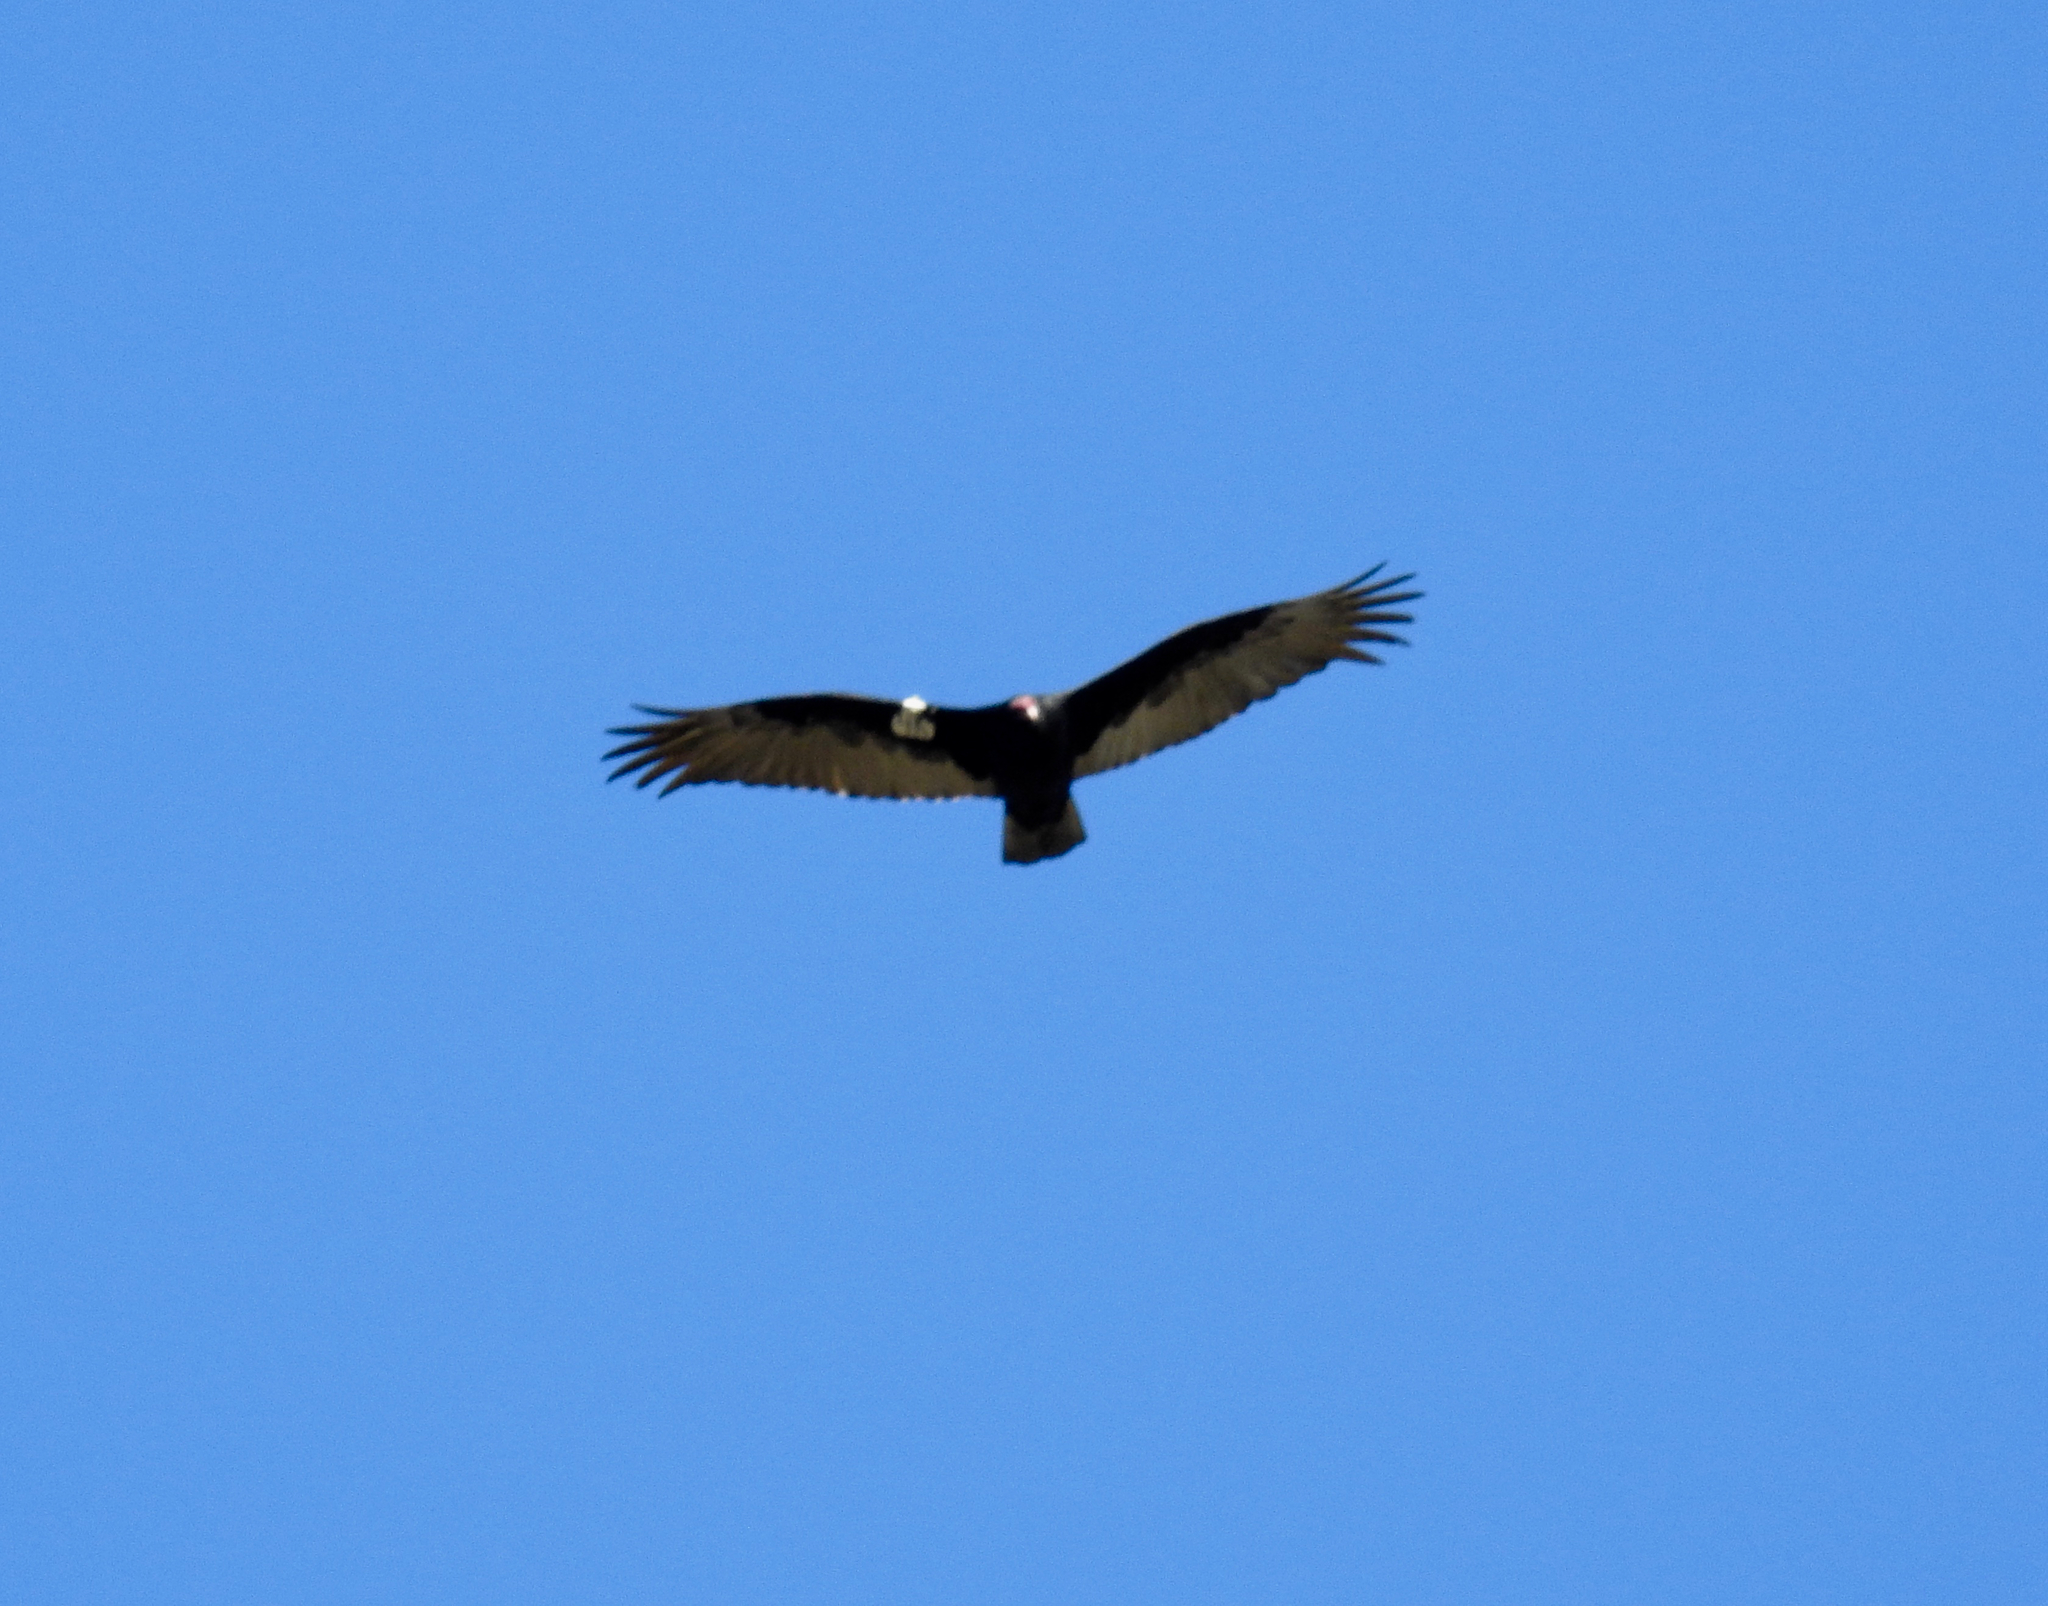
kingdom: Animalia
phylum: Chordata
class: Aves
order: Accipitriformes
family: Cathartidae
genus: Cathartes
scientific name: Cathartes aura
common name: Turkey vulture
